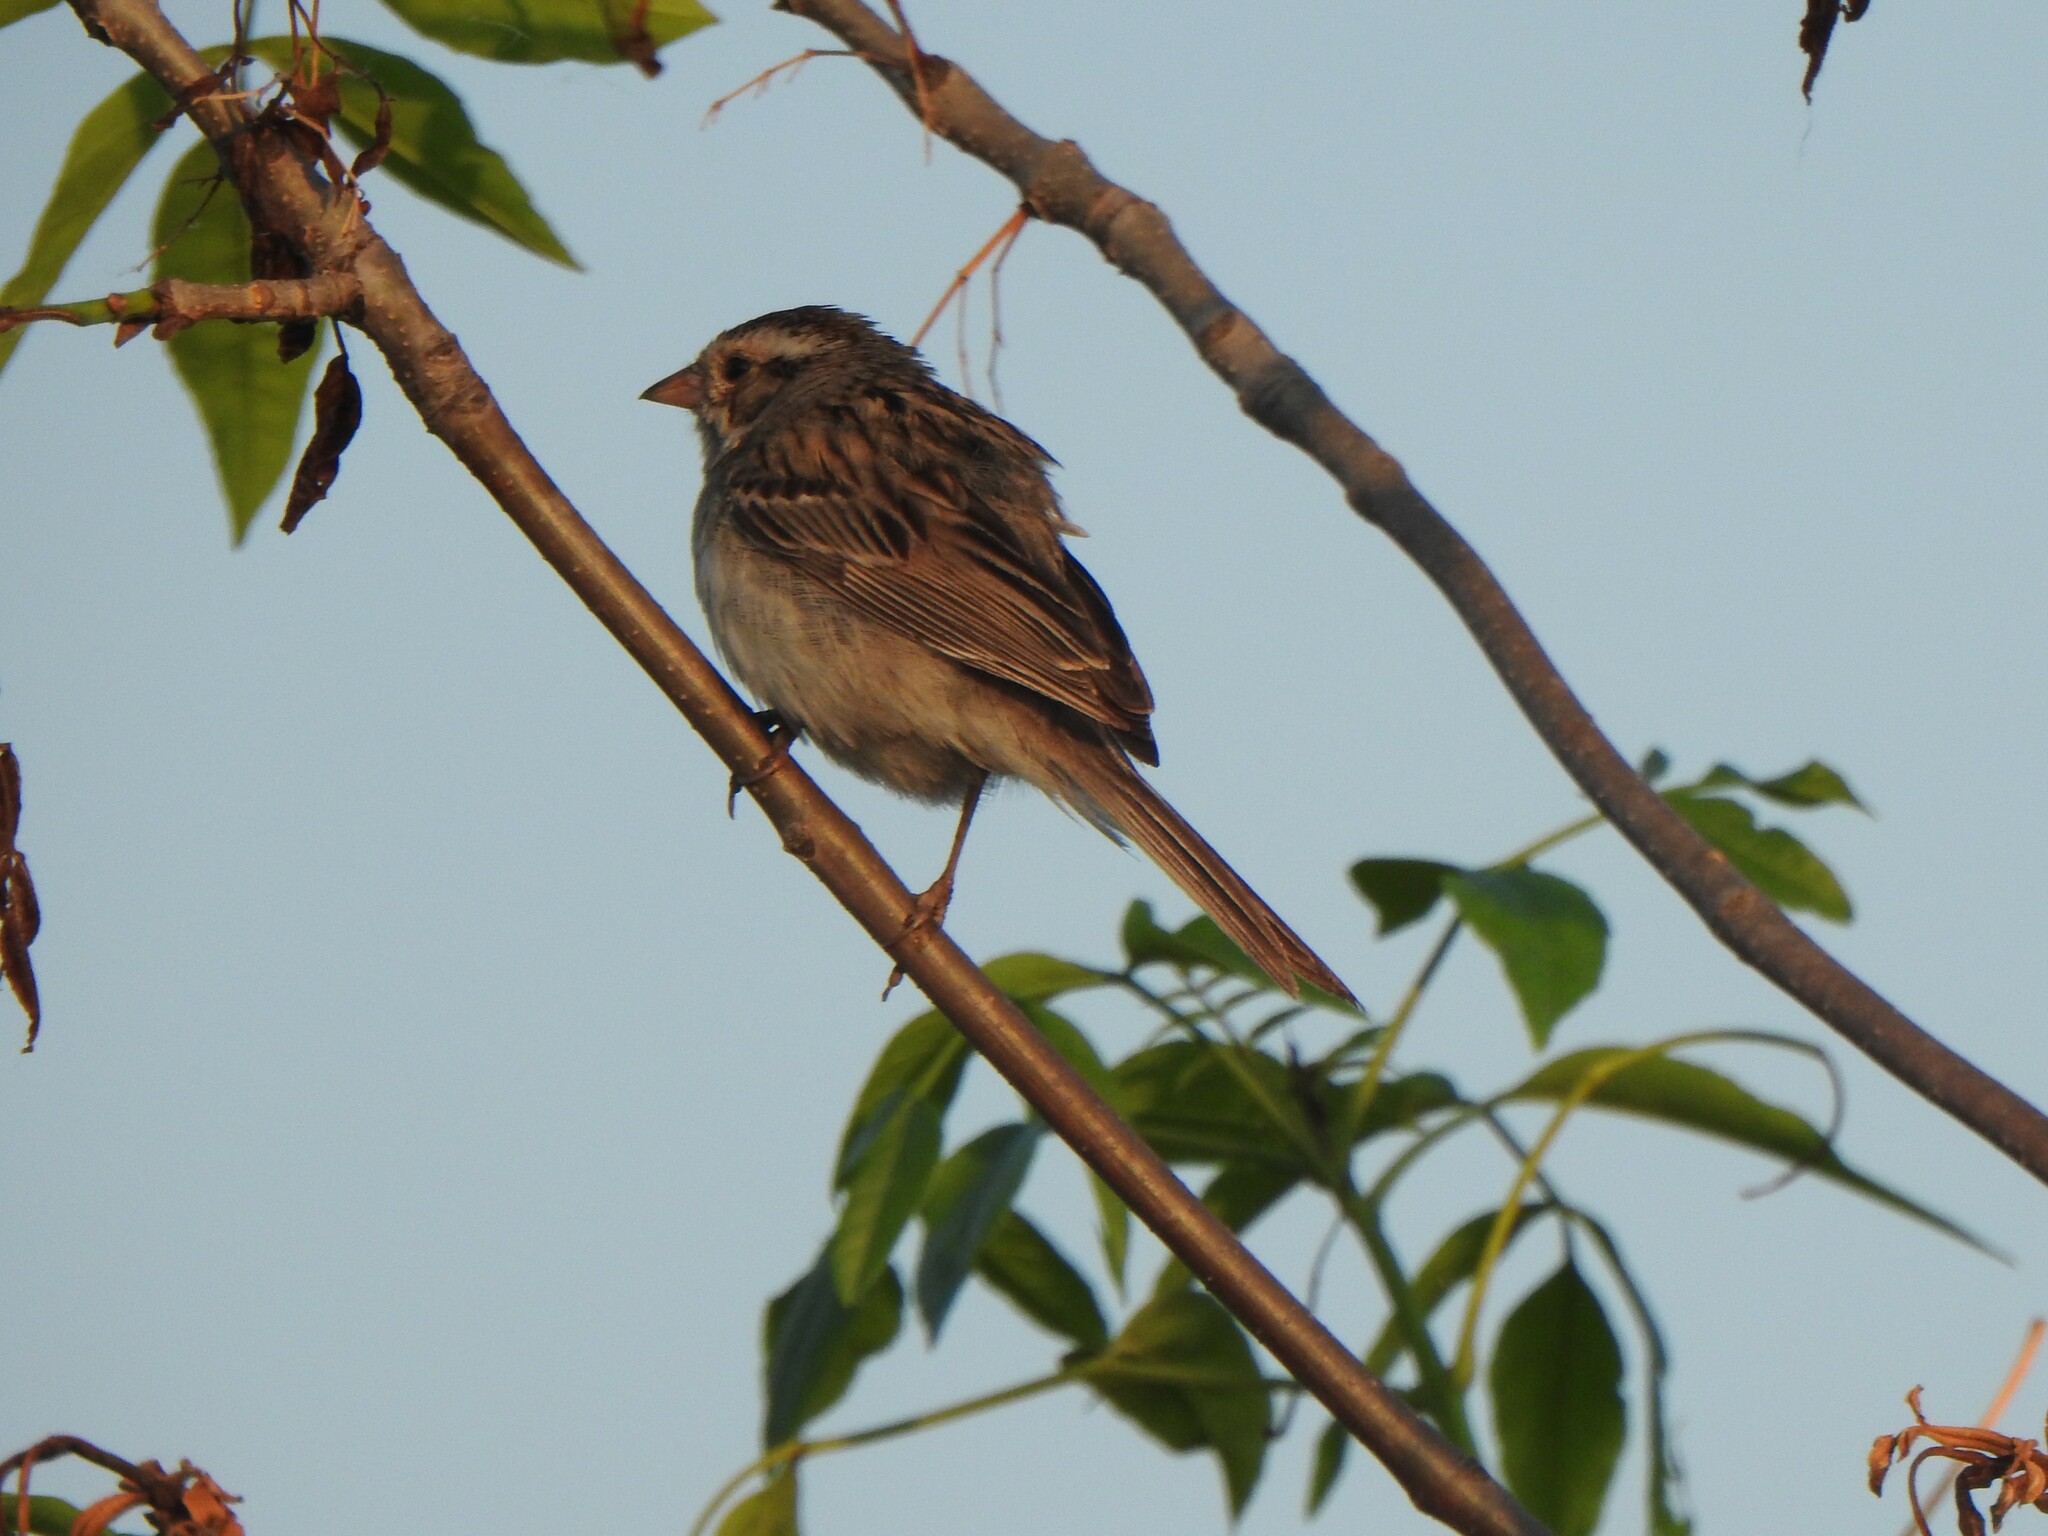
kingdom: Animalia
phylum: Chordata
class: Aves
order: Passeriformes
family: Passerellidae
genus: Spizella
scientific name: Spizella pallida
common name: Clay-colored sparrow
